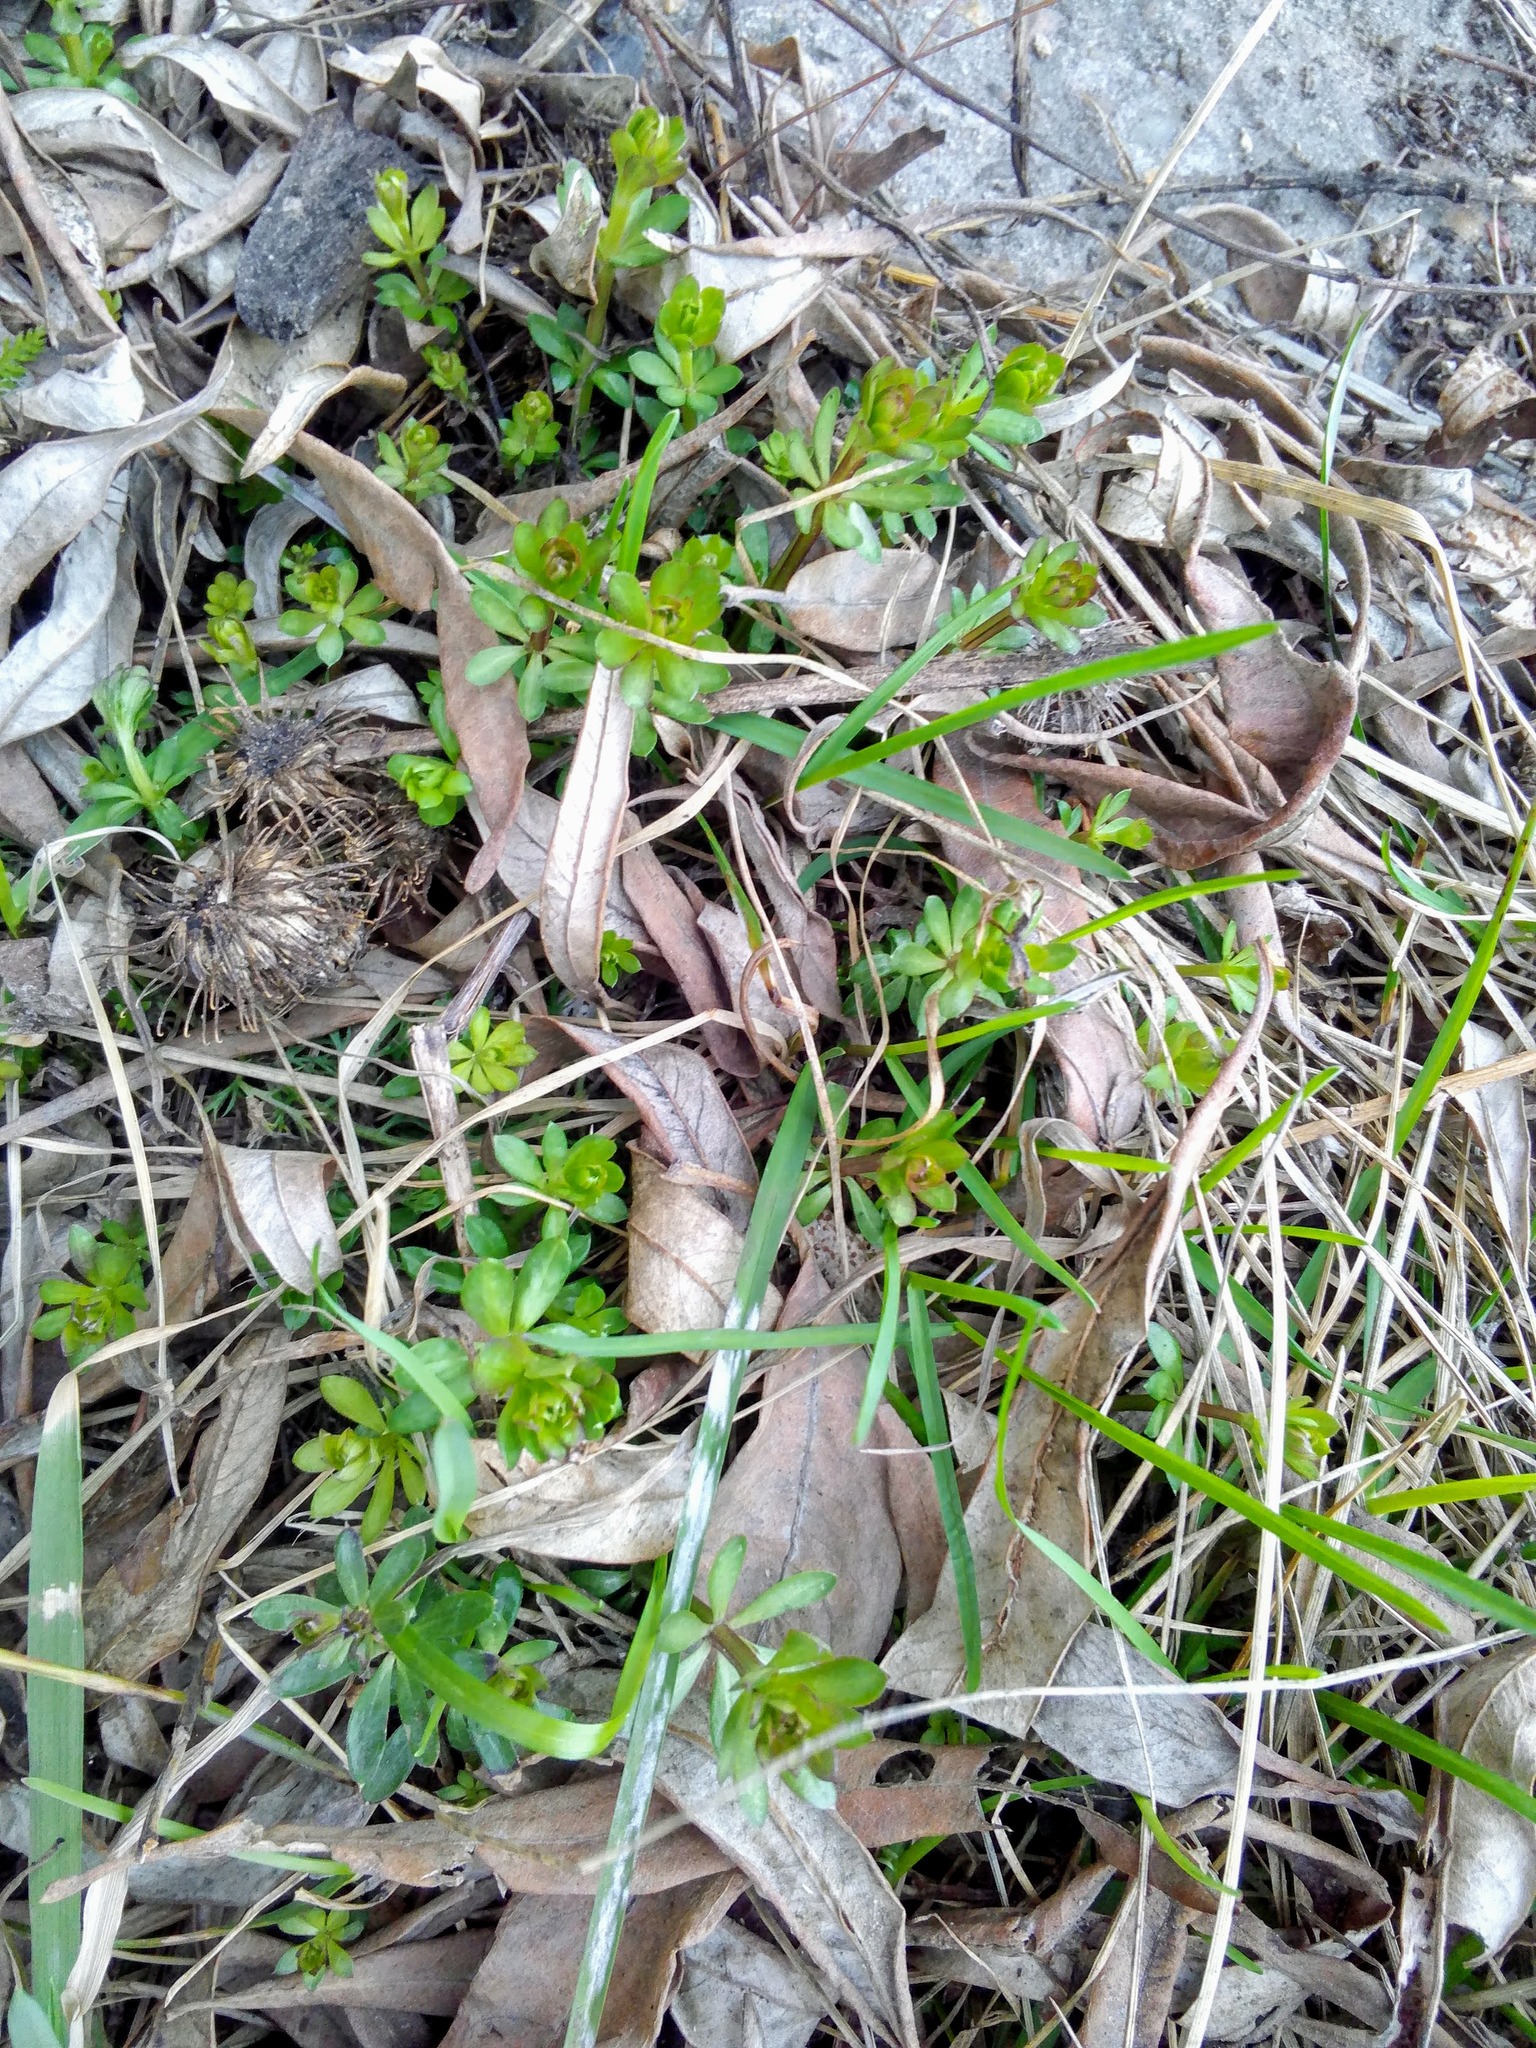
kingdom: Plantae
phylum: Tracheophyta
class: Magnoliopsida
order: Gentianales
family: Rubiaceae
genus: Galium
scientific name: Galium mollugo
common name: Hedge bedstraw
